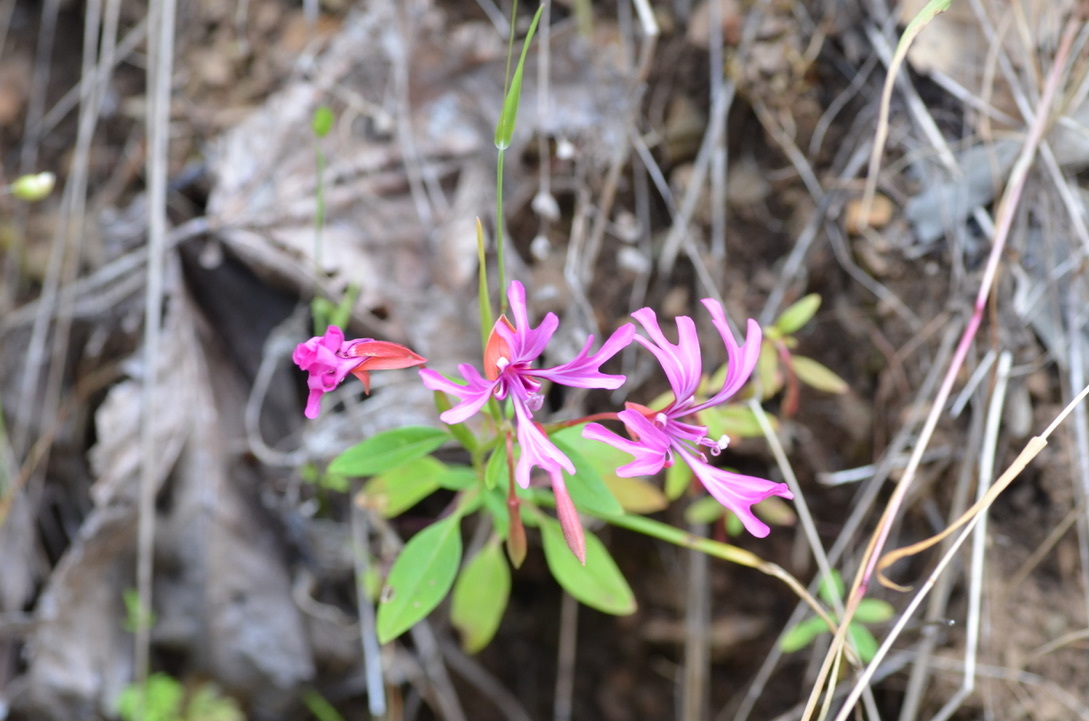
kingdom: Plantae
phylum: Tracheophyta
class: Magnoliopsida
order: Myrtales
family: Onagraceae
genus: Clarkia
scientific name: Clarkia concinna
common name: Red-ribbons
